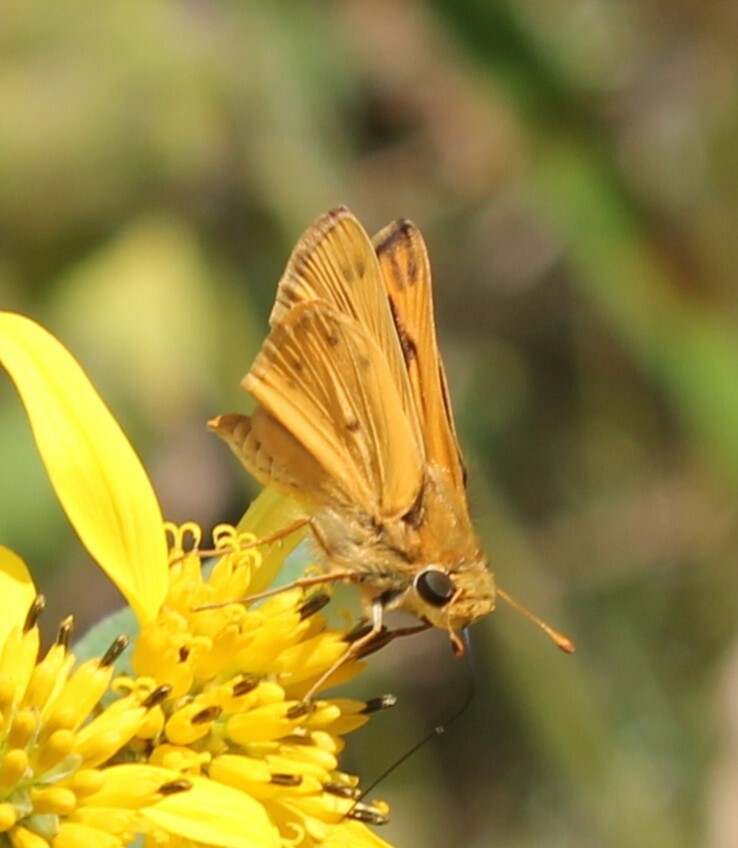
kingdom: Animalia
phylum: Arthropoda
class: Insecta
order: Lepidoptera
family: Hesperiidae
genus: Hylephila
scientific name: Hylephila phyleus
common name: Fiery skipper
